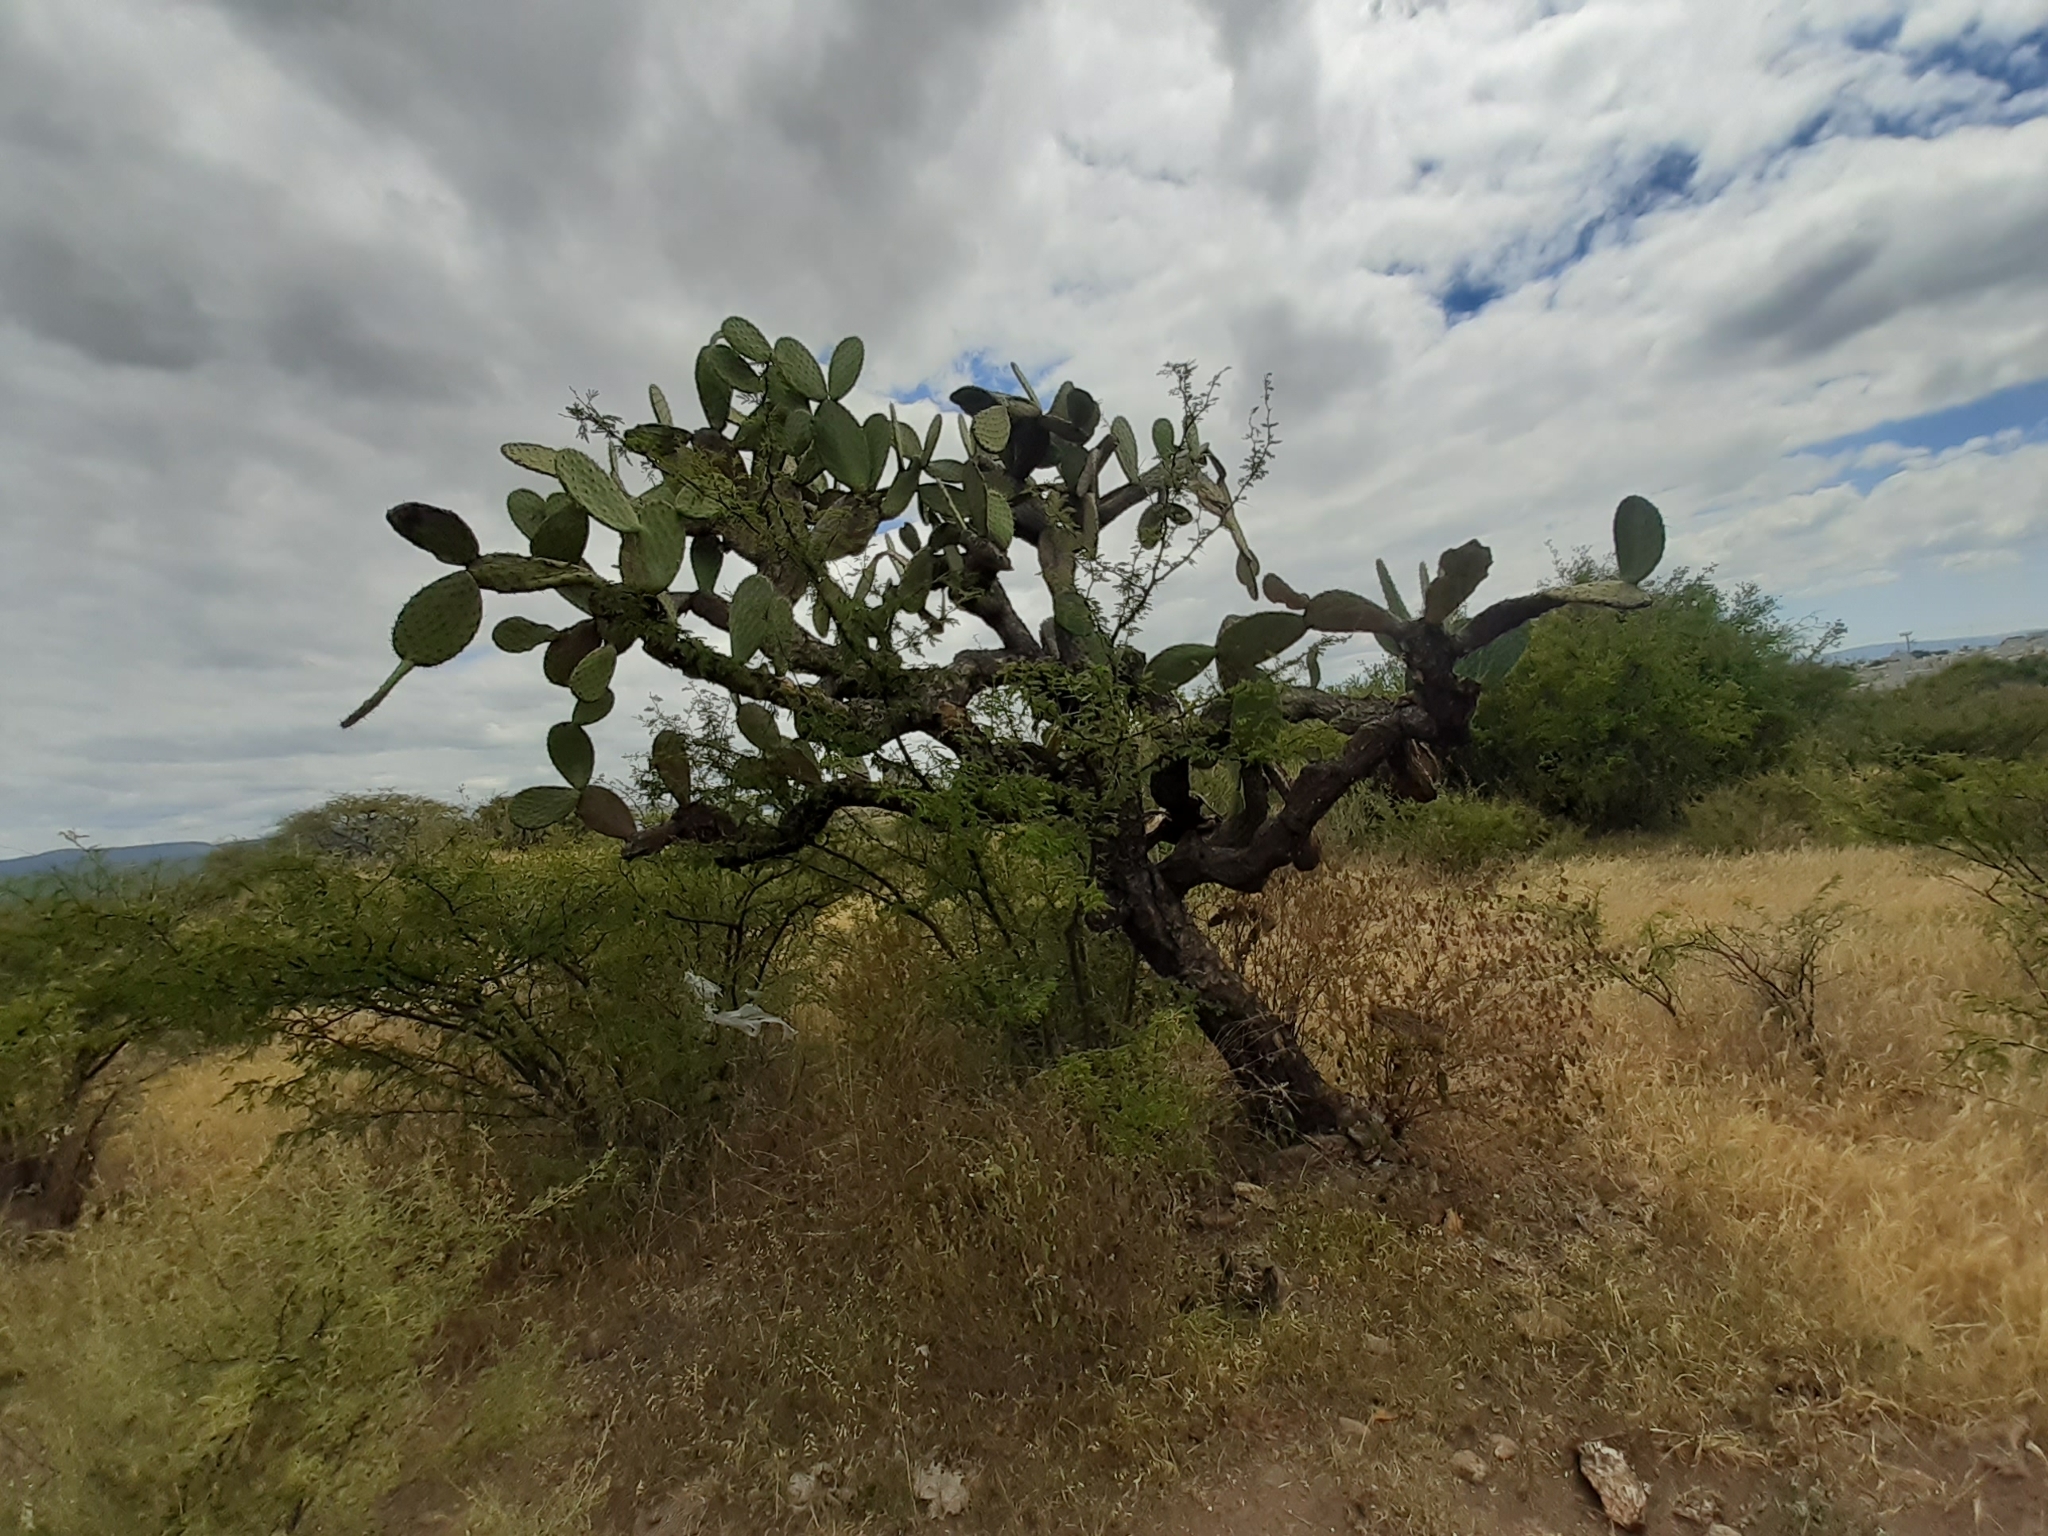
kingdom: Plantae
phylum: Tracheophyta
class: Magnoliopsida
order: Caryophyllales
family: Cactaceae
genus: Opuntia
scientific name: Opuntia lasiacantha
